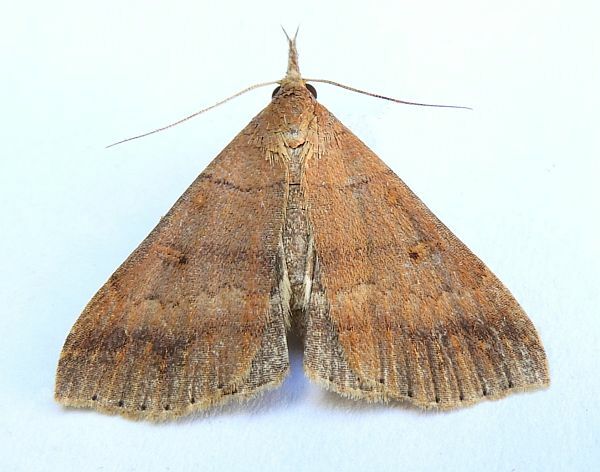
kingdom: Animalia
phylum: Arthropoda
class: Insecta
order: Lepidoptera
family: Erebidae
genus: Renia
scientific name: Renia nemoralis
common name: Chocolate renia moth
